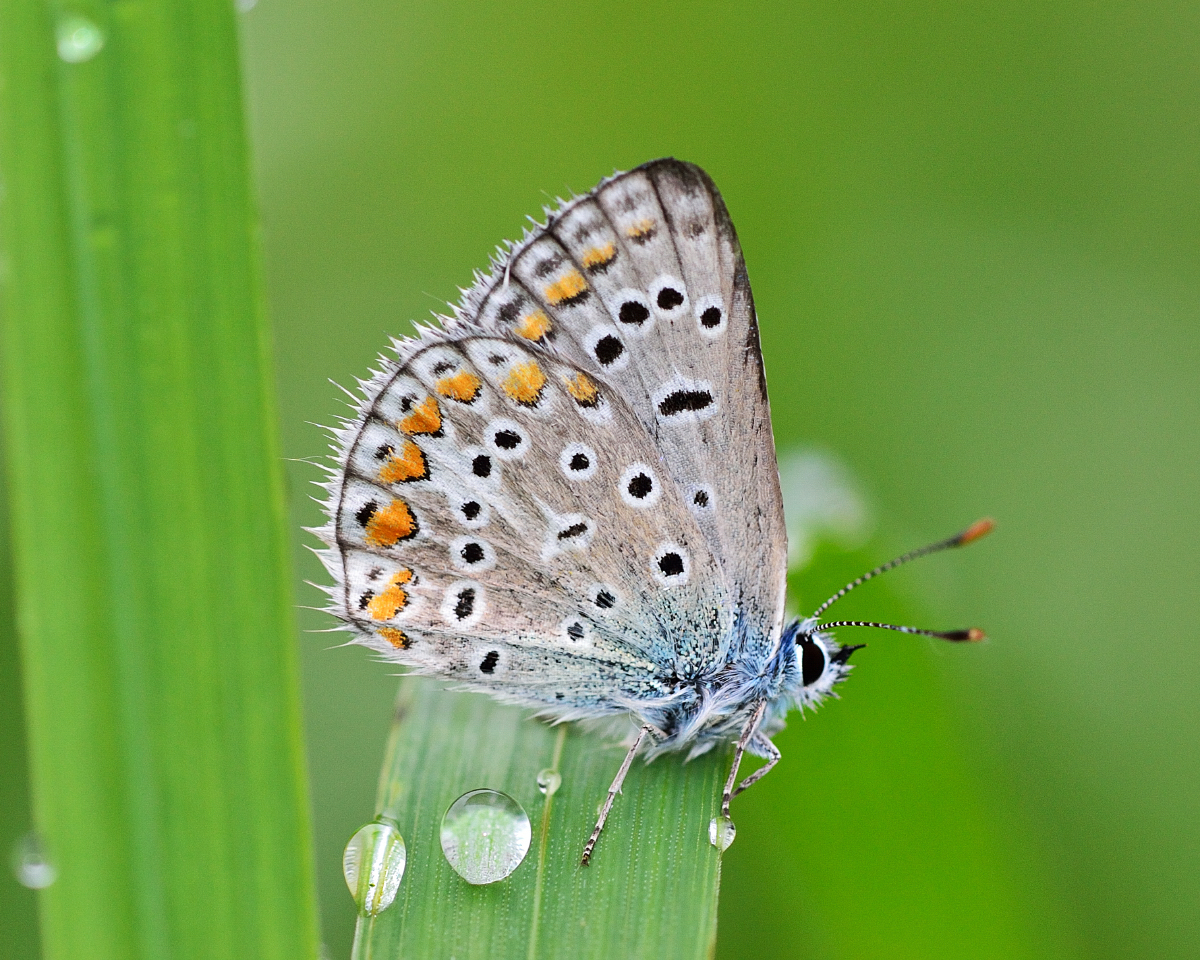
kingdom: Animalia
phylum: Arthropoda
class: Insecta
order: Lepidoptera
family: Lycaenidae
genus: Polyommatus
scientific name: Polyommatus icarus
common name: Common blue
